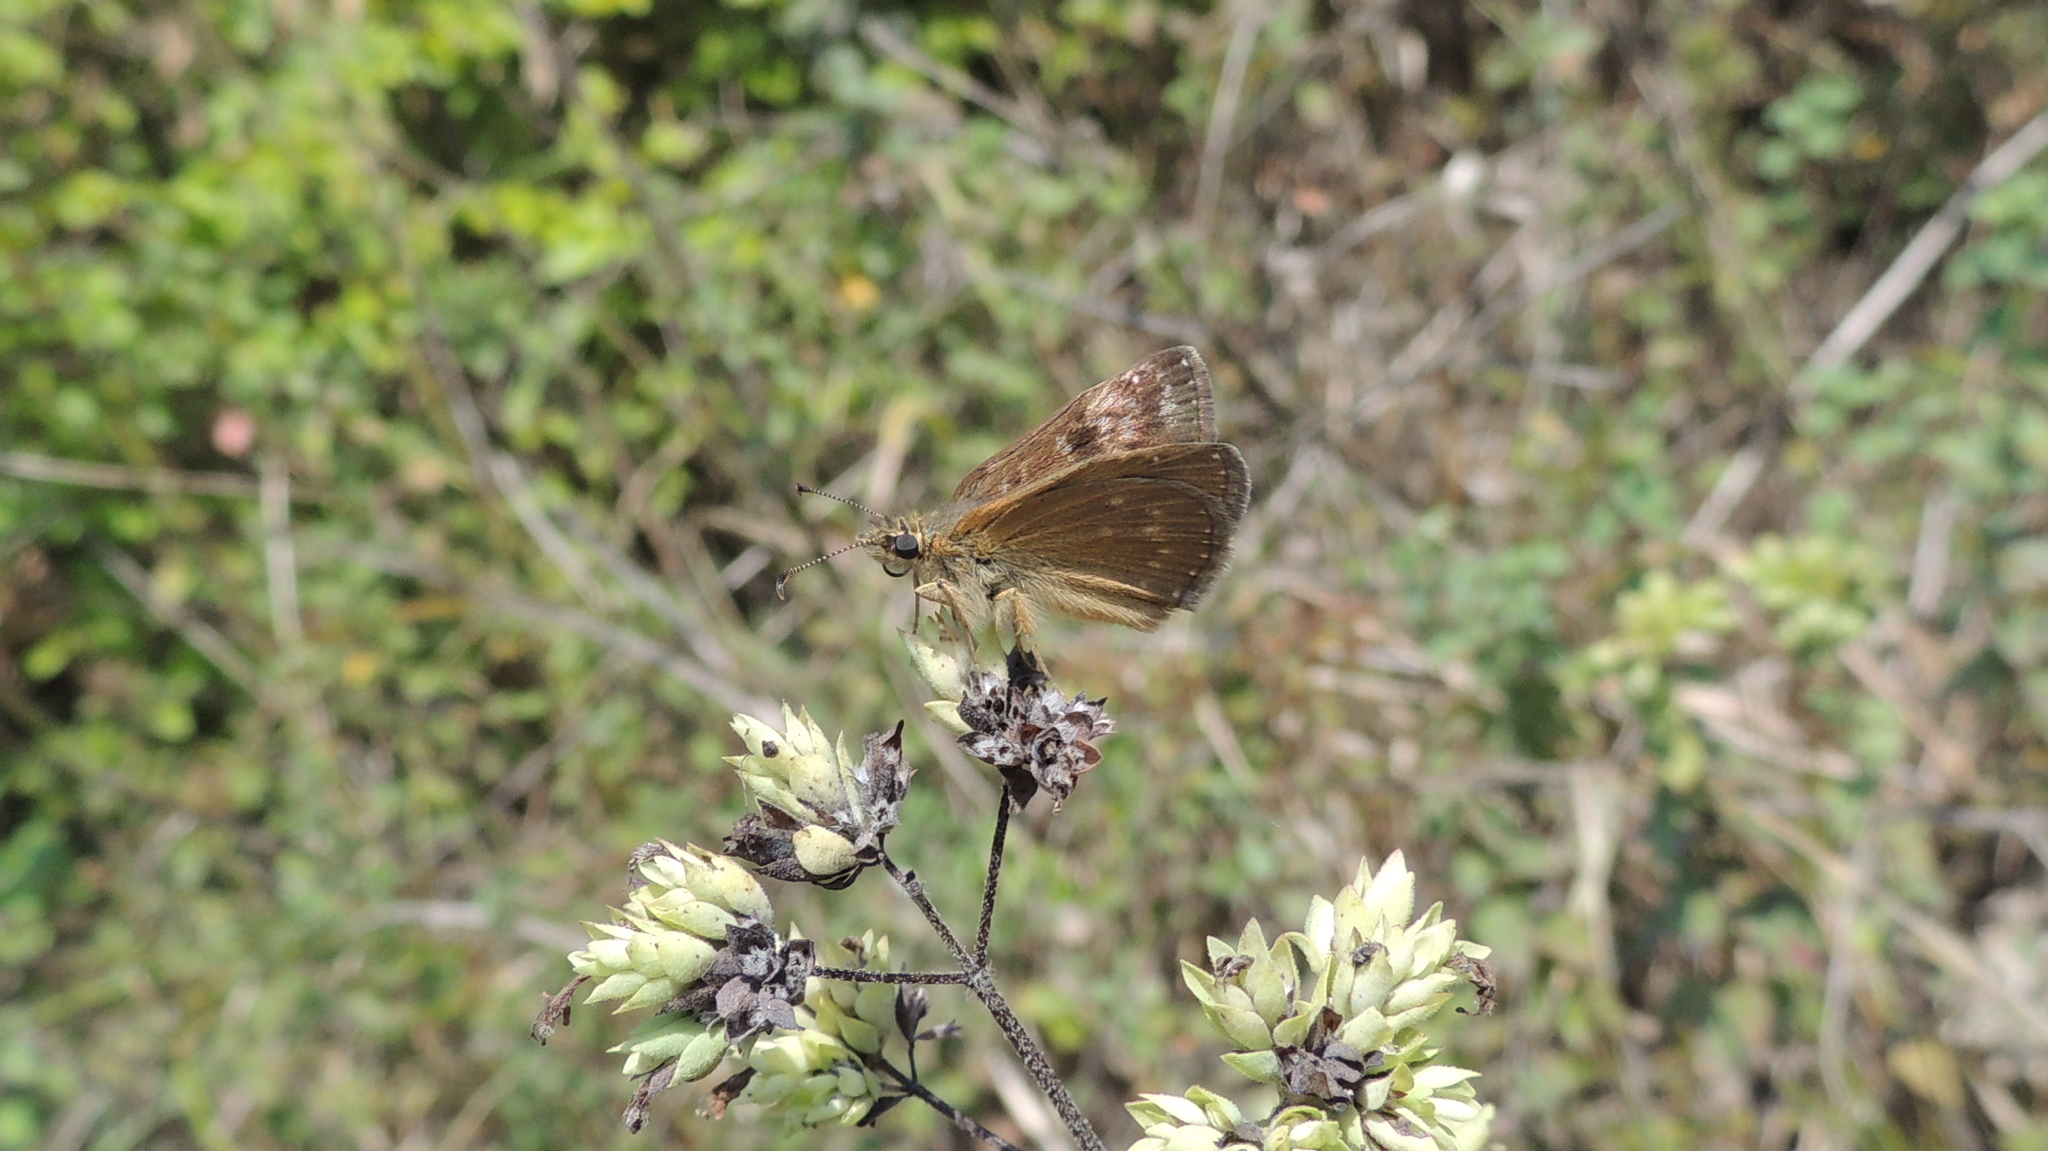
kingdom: Animalia
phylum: Arthropoda
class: Insecta
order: Lepidoptera
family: Hesperiidae
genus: Erynnis
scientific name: Erynnis tages
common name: Dingy skipper
